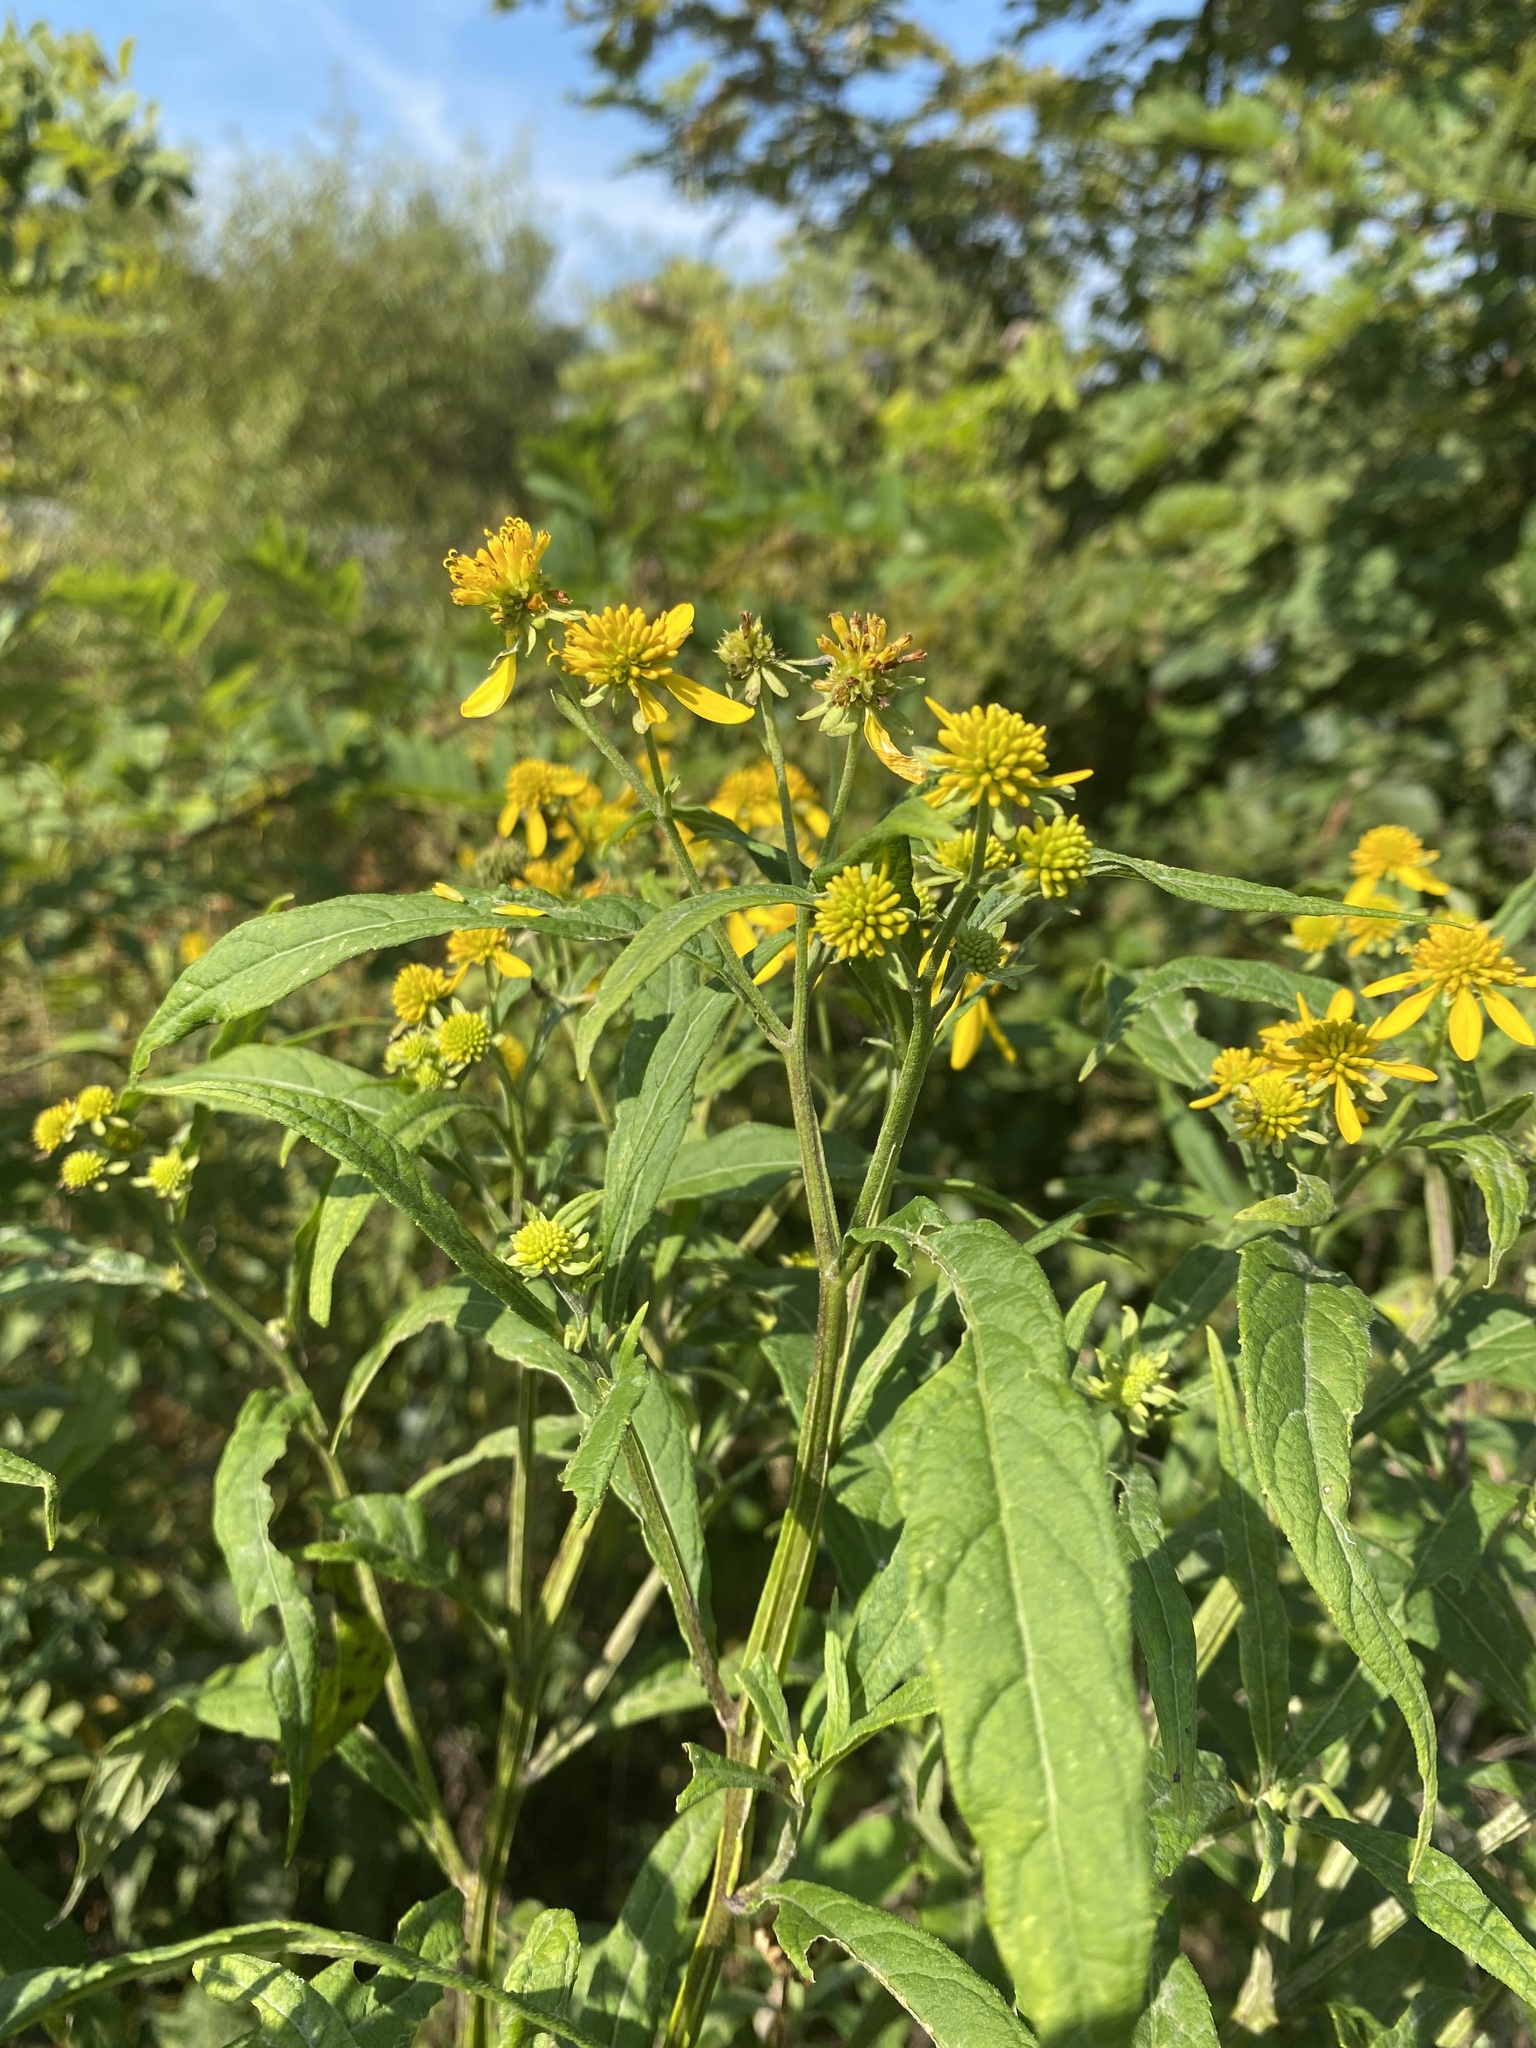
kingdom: Plantae
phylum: Tracheophyta
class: Magnoliopsida
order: Asterales
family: Asteraceae
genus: Verbesina
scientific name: Verbesina alternifolia
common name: Wingstem
